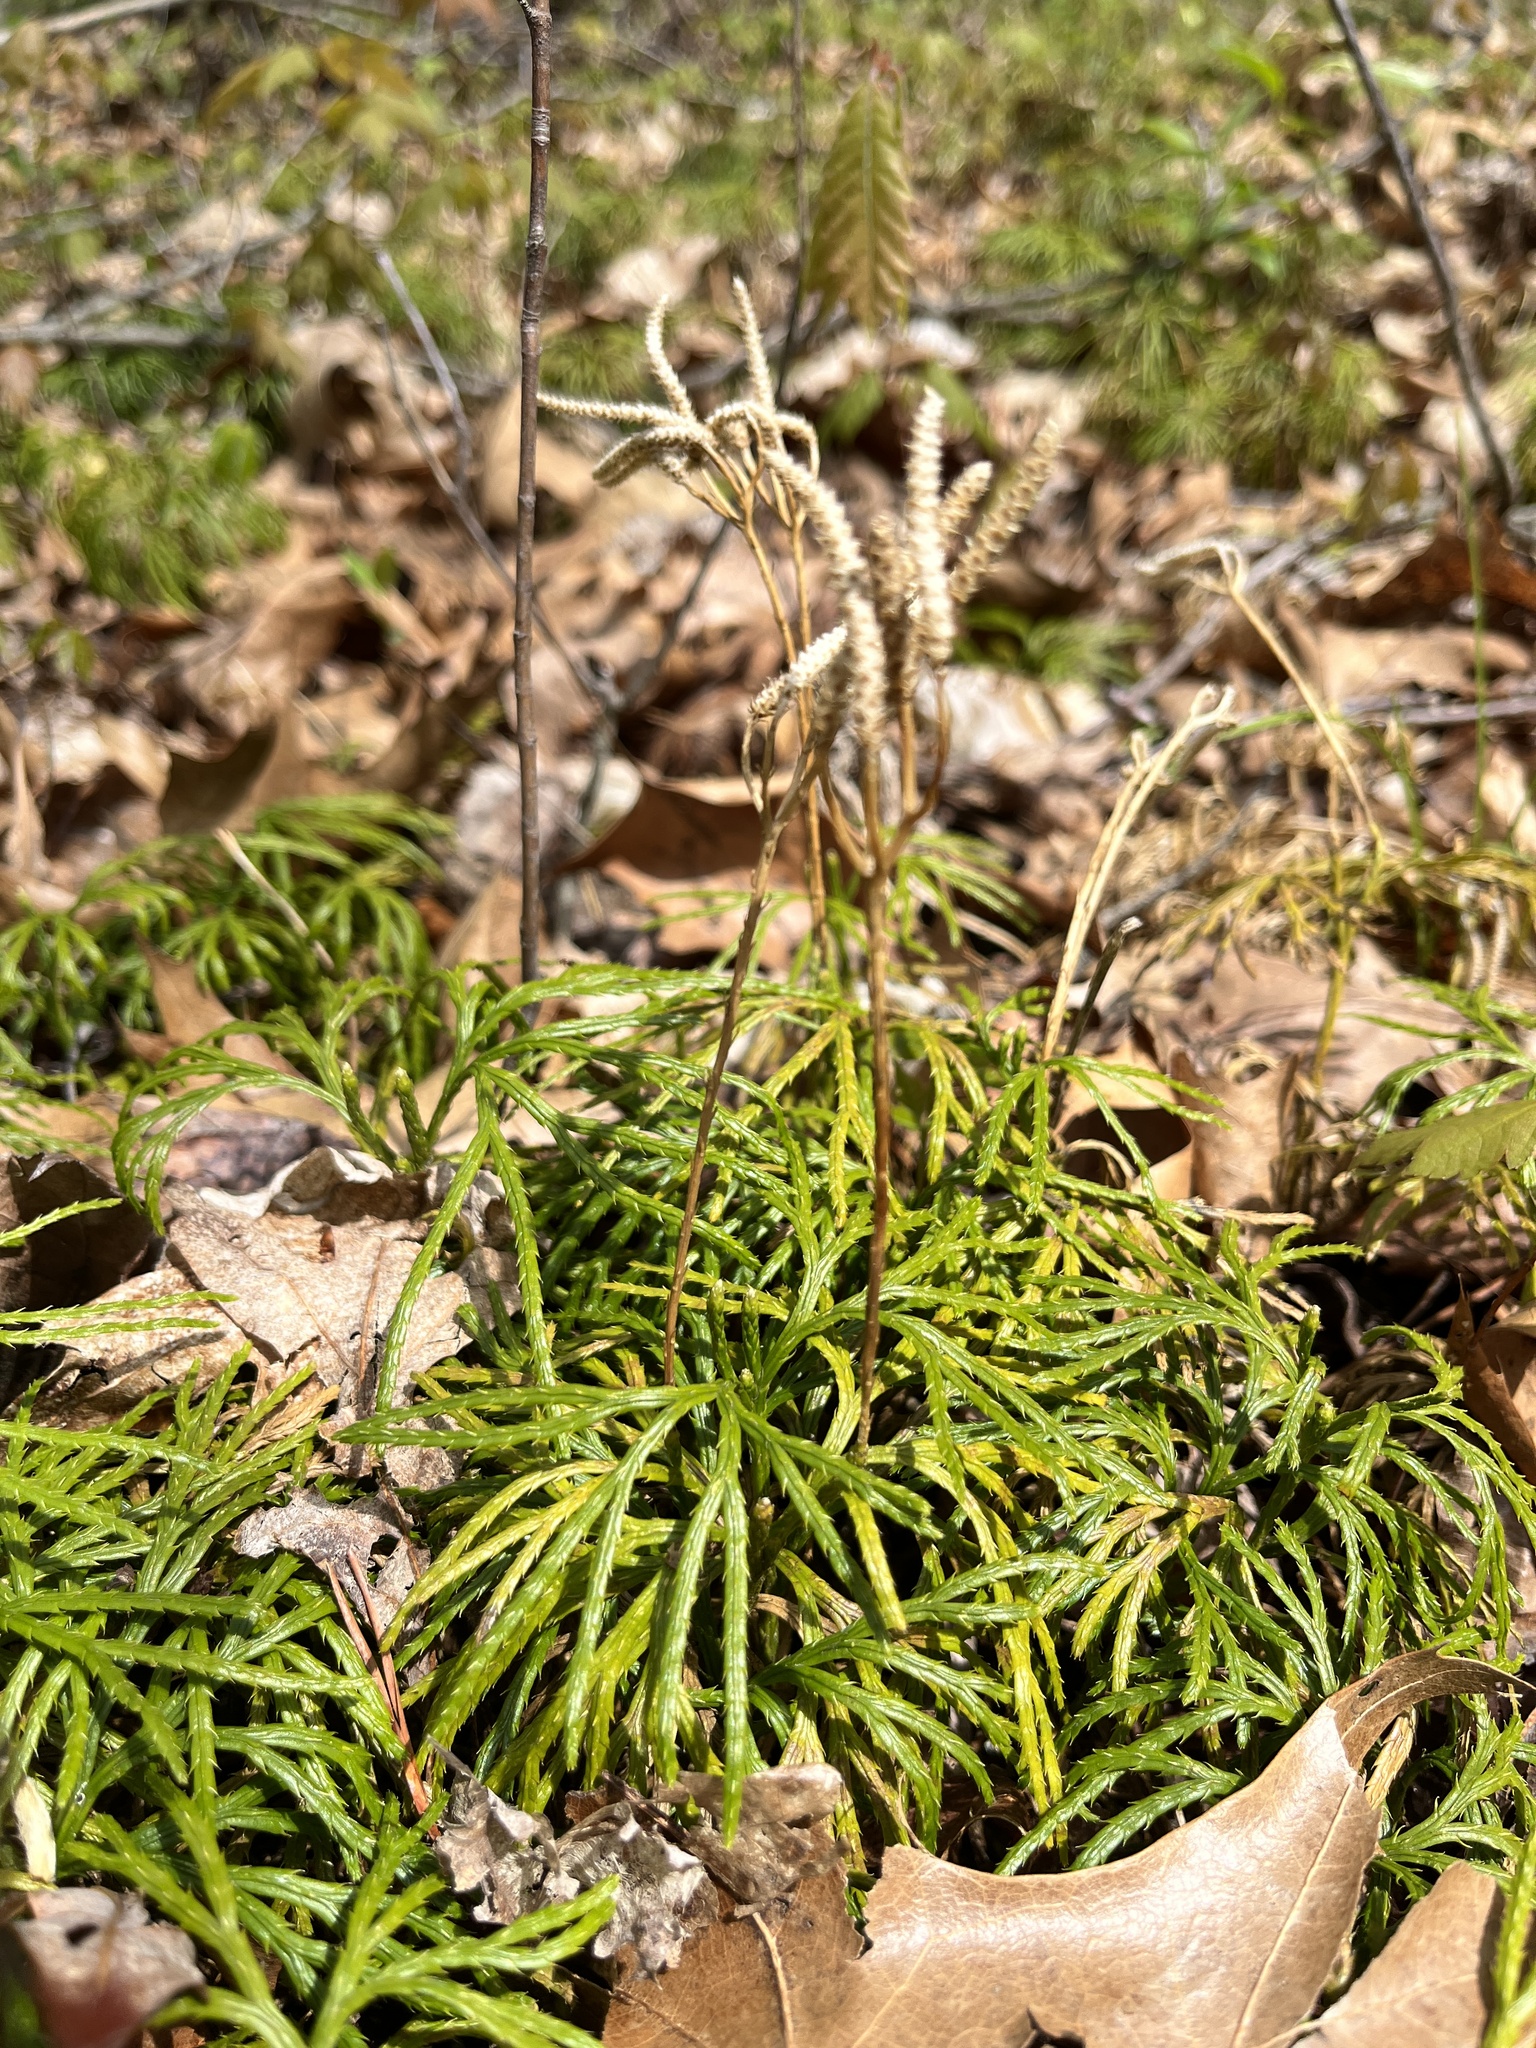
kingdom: Plantae
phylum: Tracheophyta
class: Lycopodiopsida
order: Lycopodiales
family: Lycopodiaceae
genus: Diphasiastrum
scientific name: Diphasiastrum digitatum
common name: Southern running-pine
